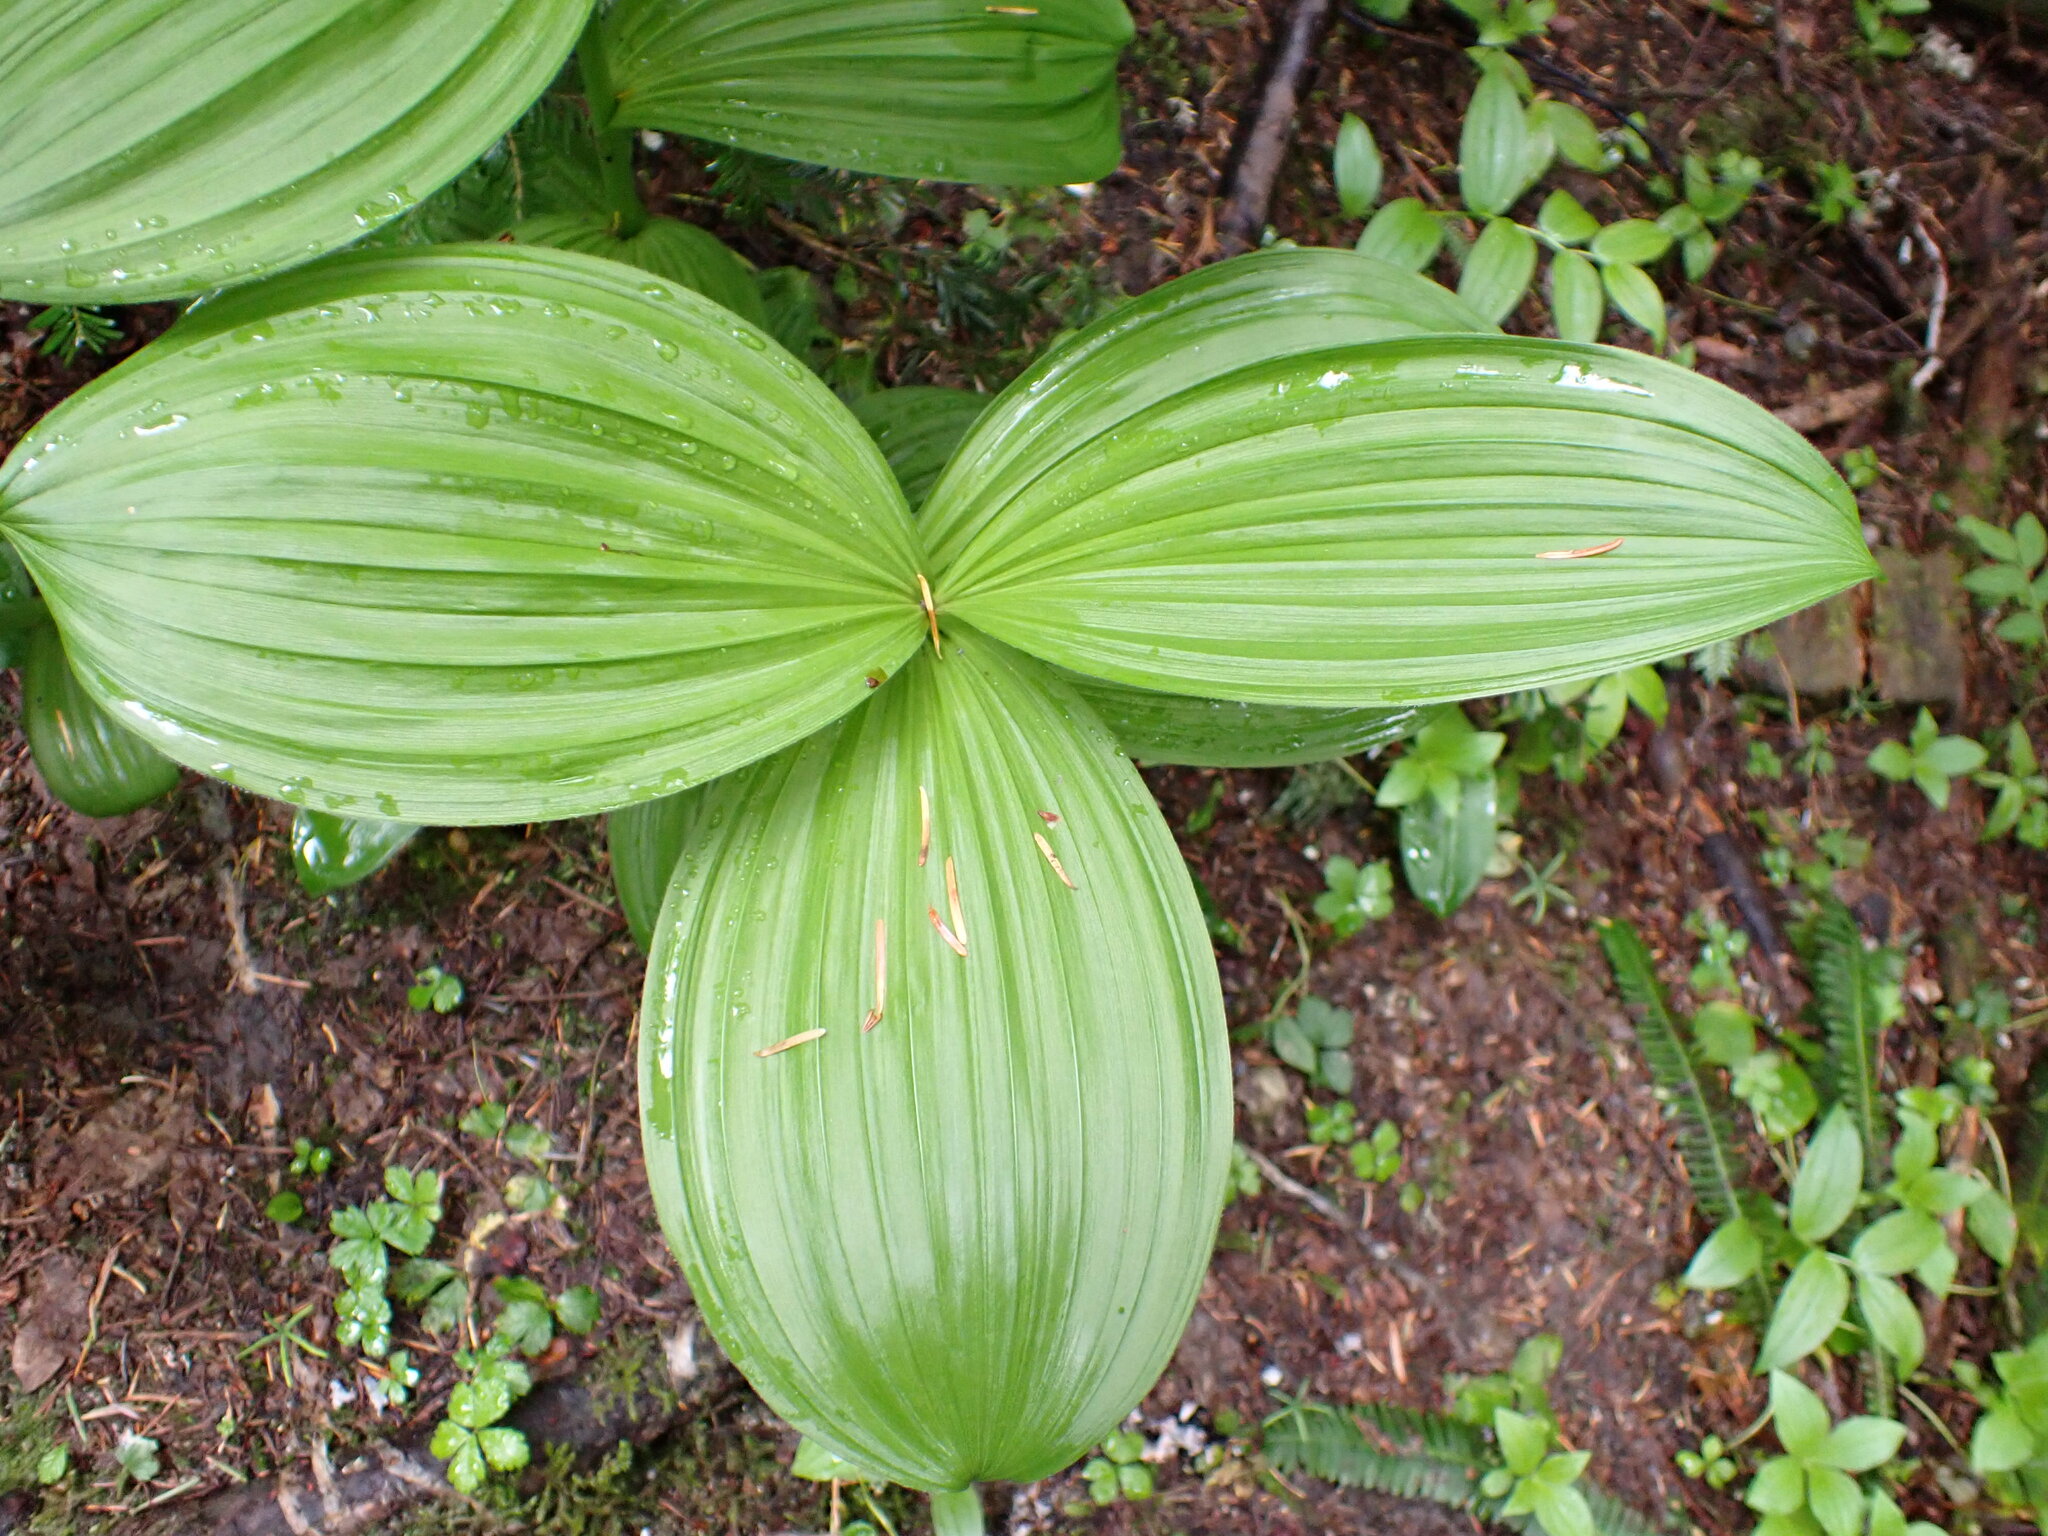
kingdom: Plantae
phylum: Tracheophyta
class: Liliopsida
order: Liliales
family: Melanthiaceae
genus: Veratrum
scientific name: Veratrum viride
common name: American false hellebore
